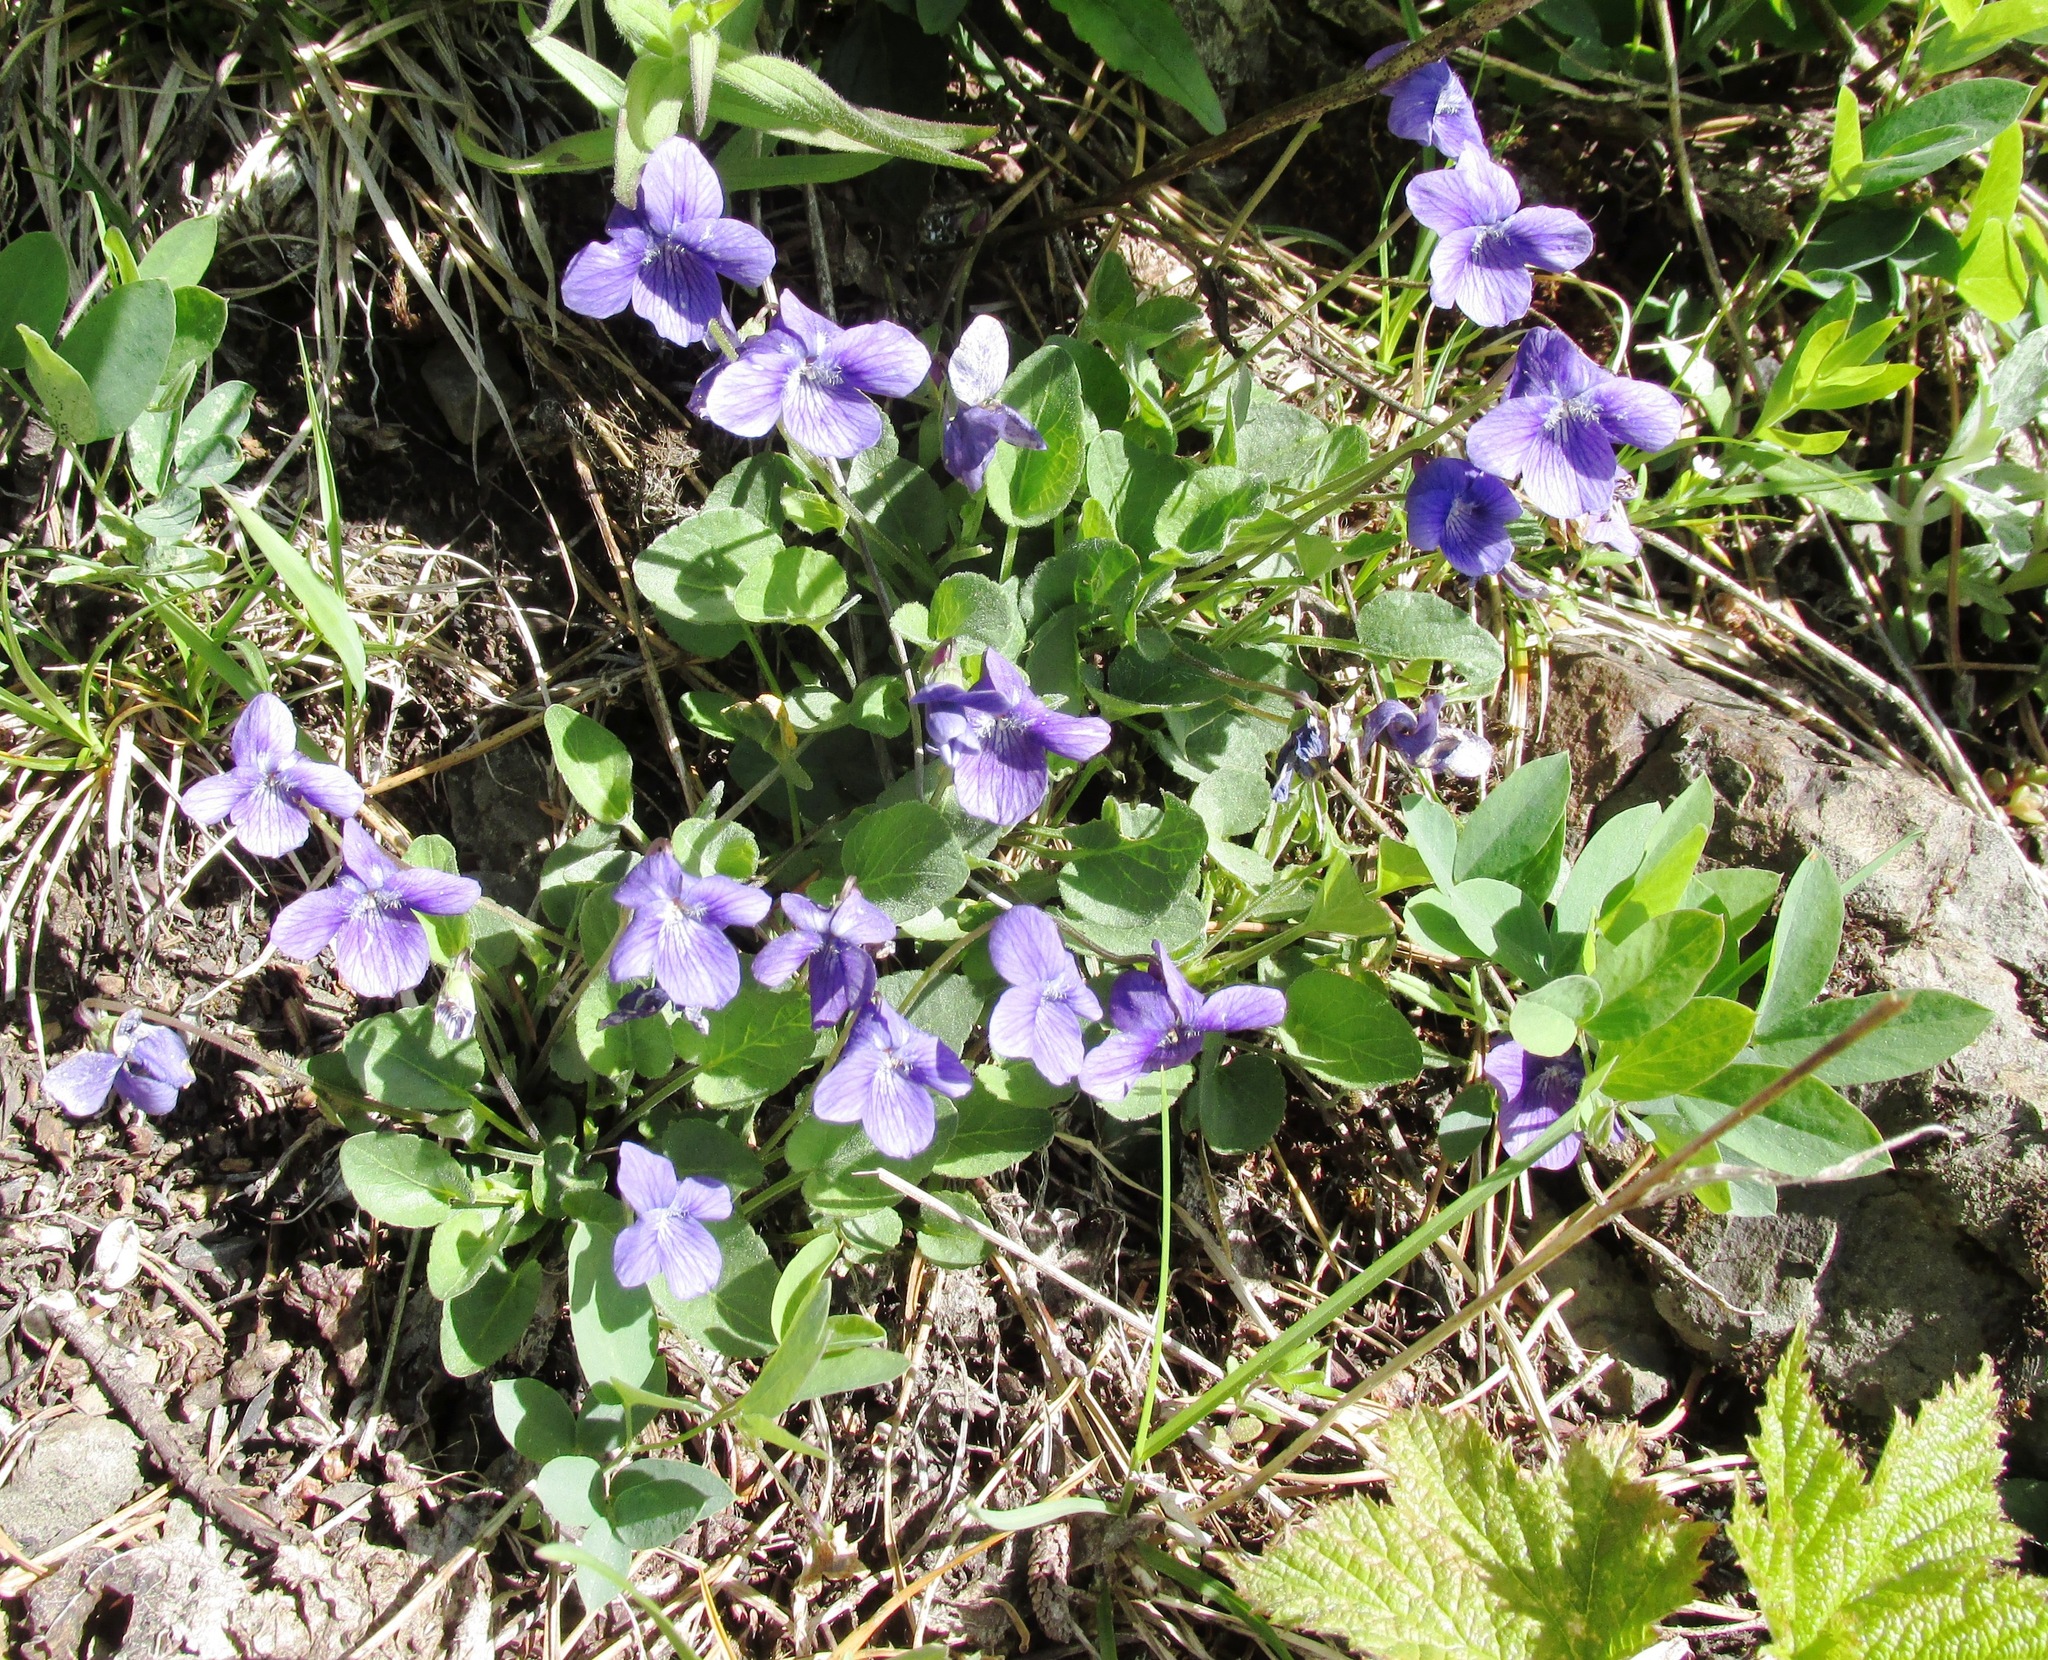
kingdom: Plantae
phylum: Tracheophyta
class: Magnoliopsida
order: Malpighiales
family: Violaceae
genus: Viola
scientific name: Viola adunca
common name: Sand violet
